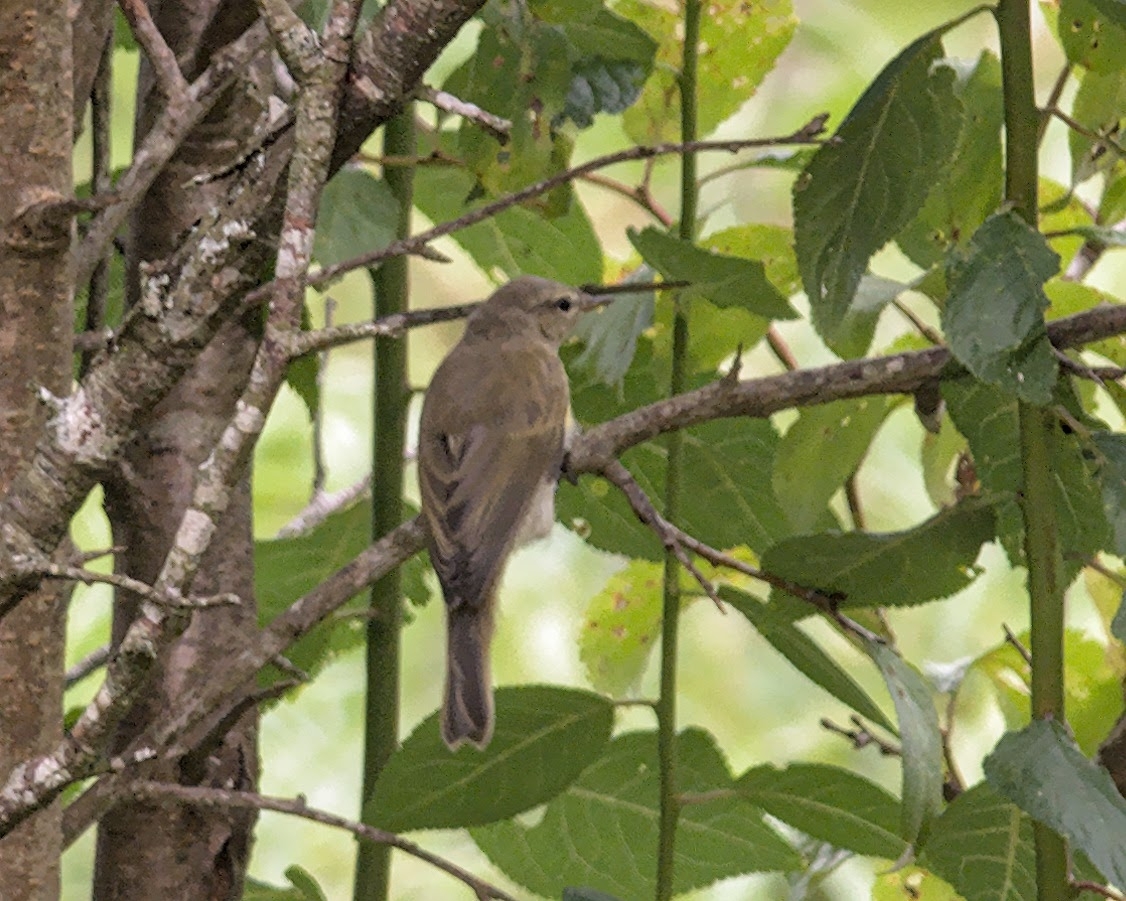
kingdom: Animalia
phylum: Chordata
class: Aves
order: Passeriformes
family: Phylloscopidae
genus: Phylloscopus
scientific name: Phylloscopus collybita
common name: Common chiffchaff
